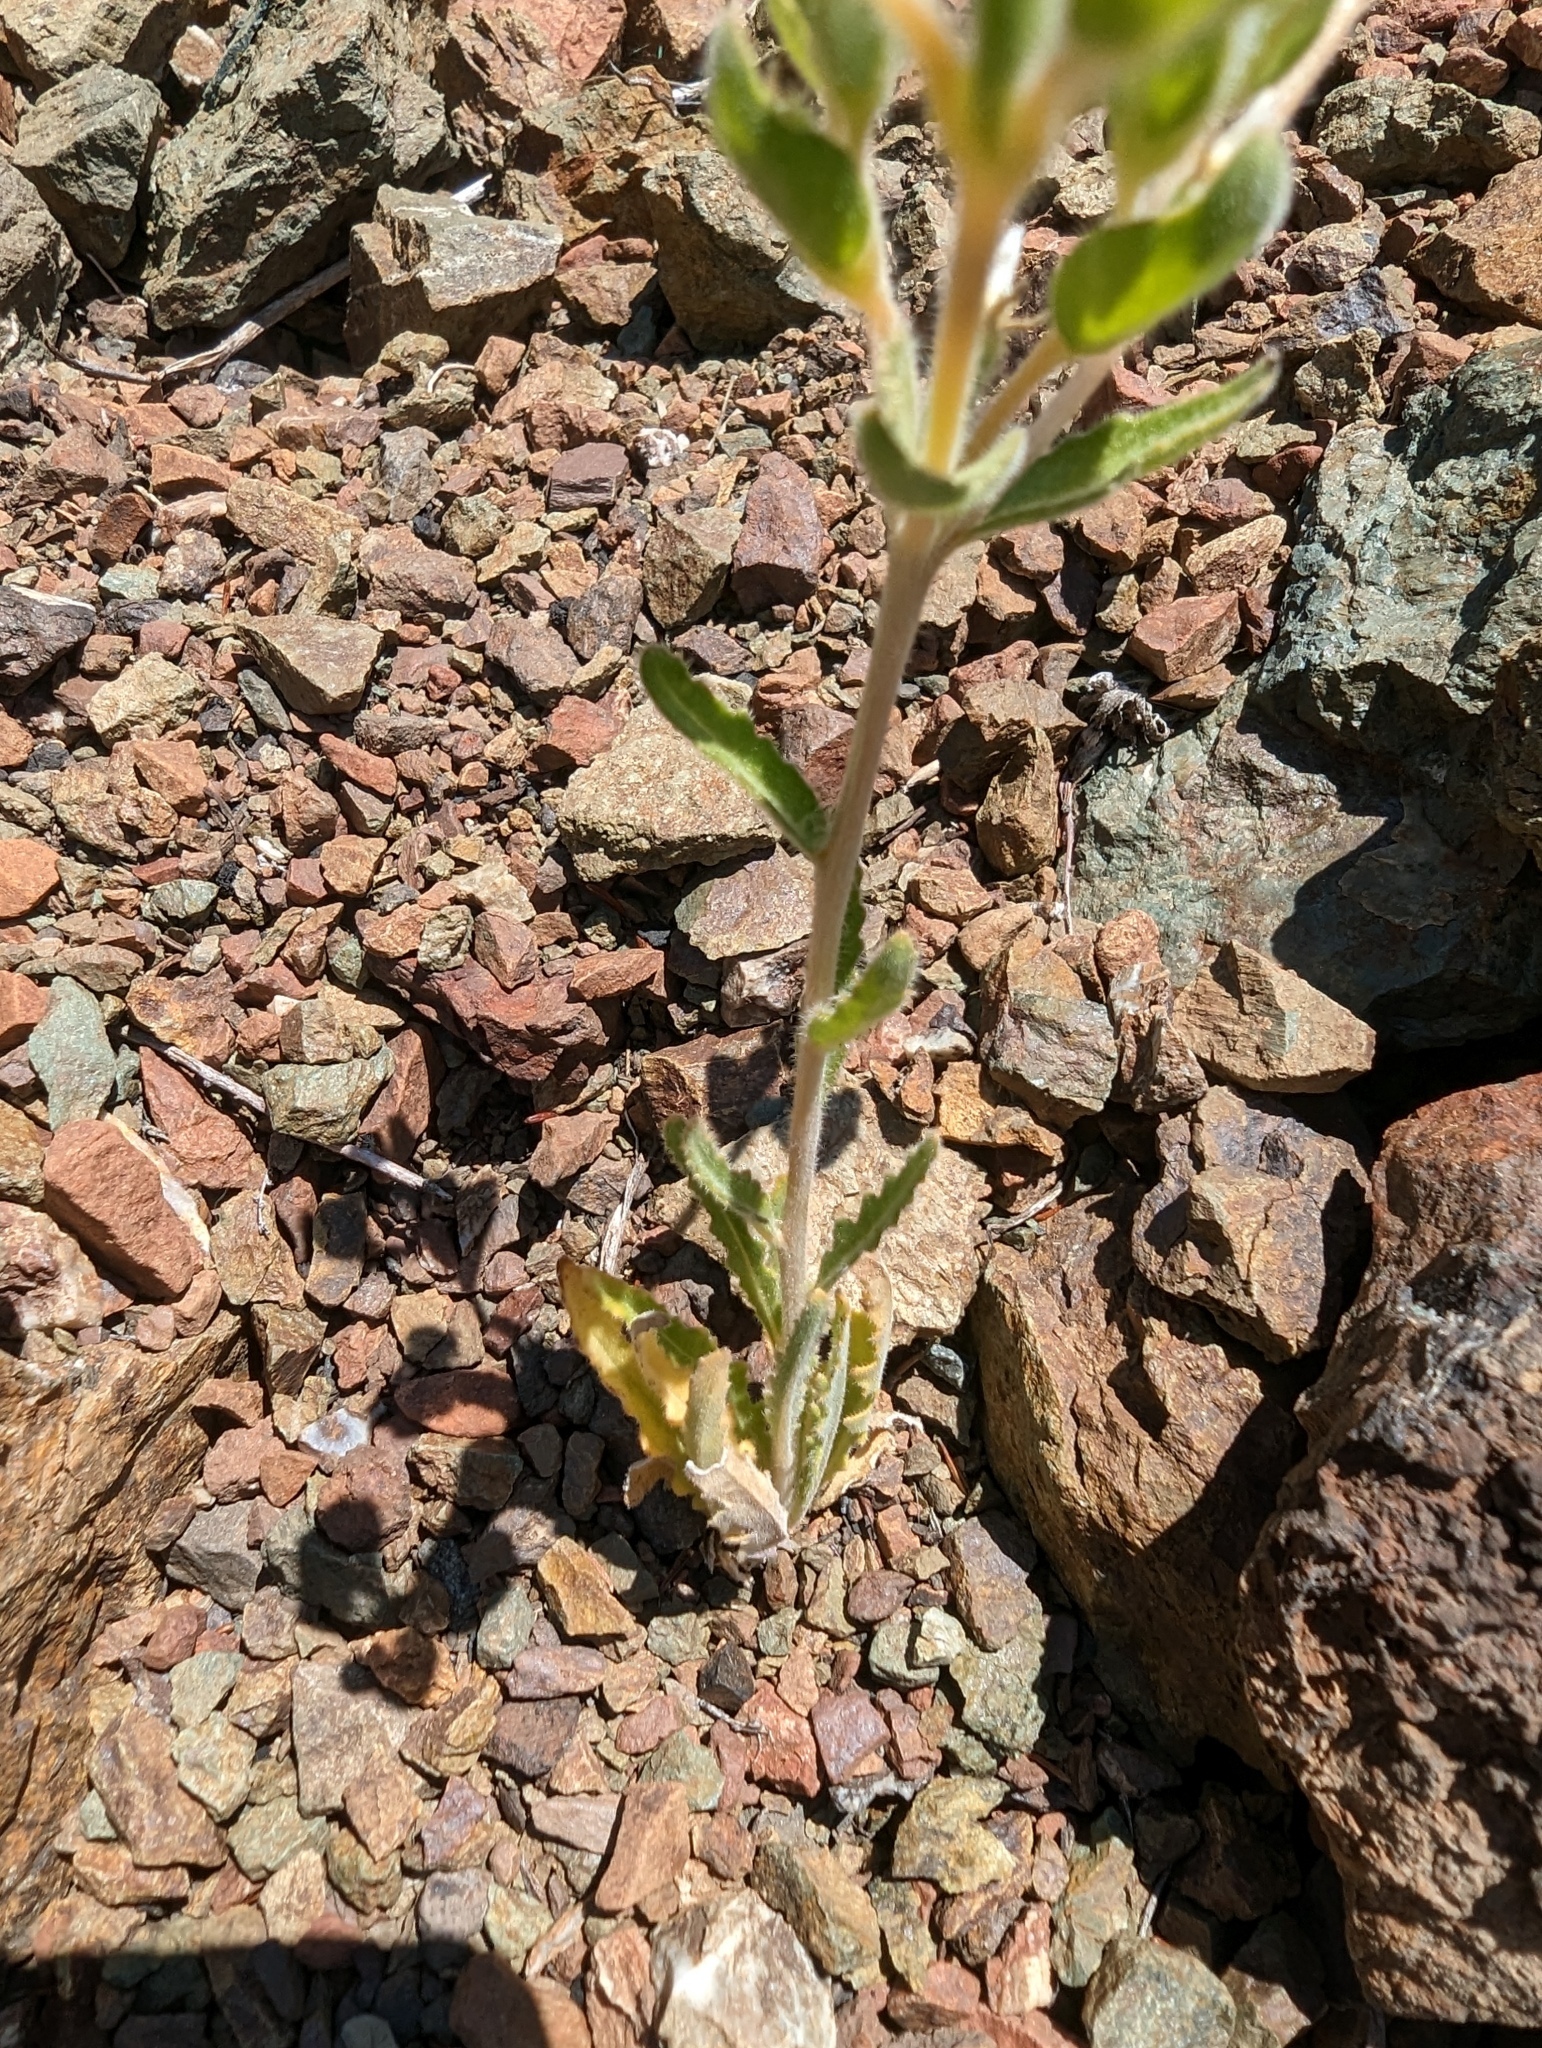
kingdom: Plantae
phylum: Tracheophyta
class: Magnoliopsida
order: Cornales
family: Loasaceae
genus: Mentzelia
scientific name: Mentzelia micrantha
